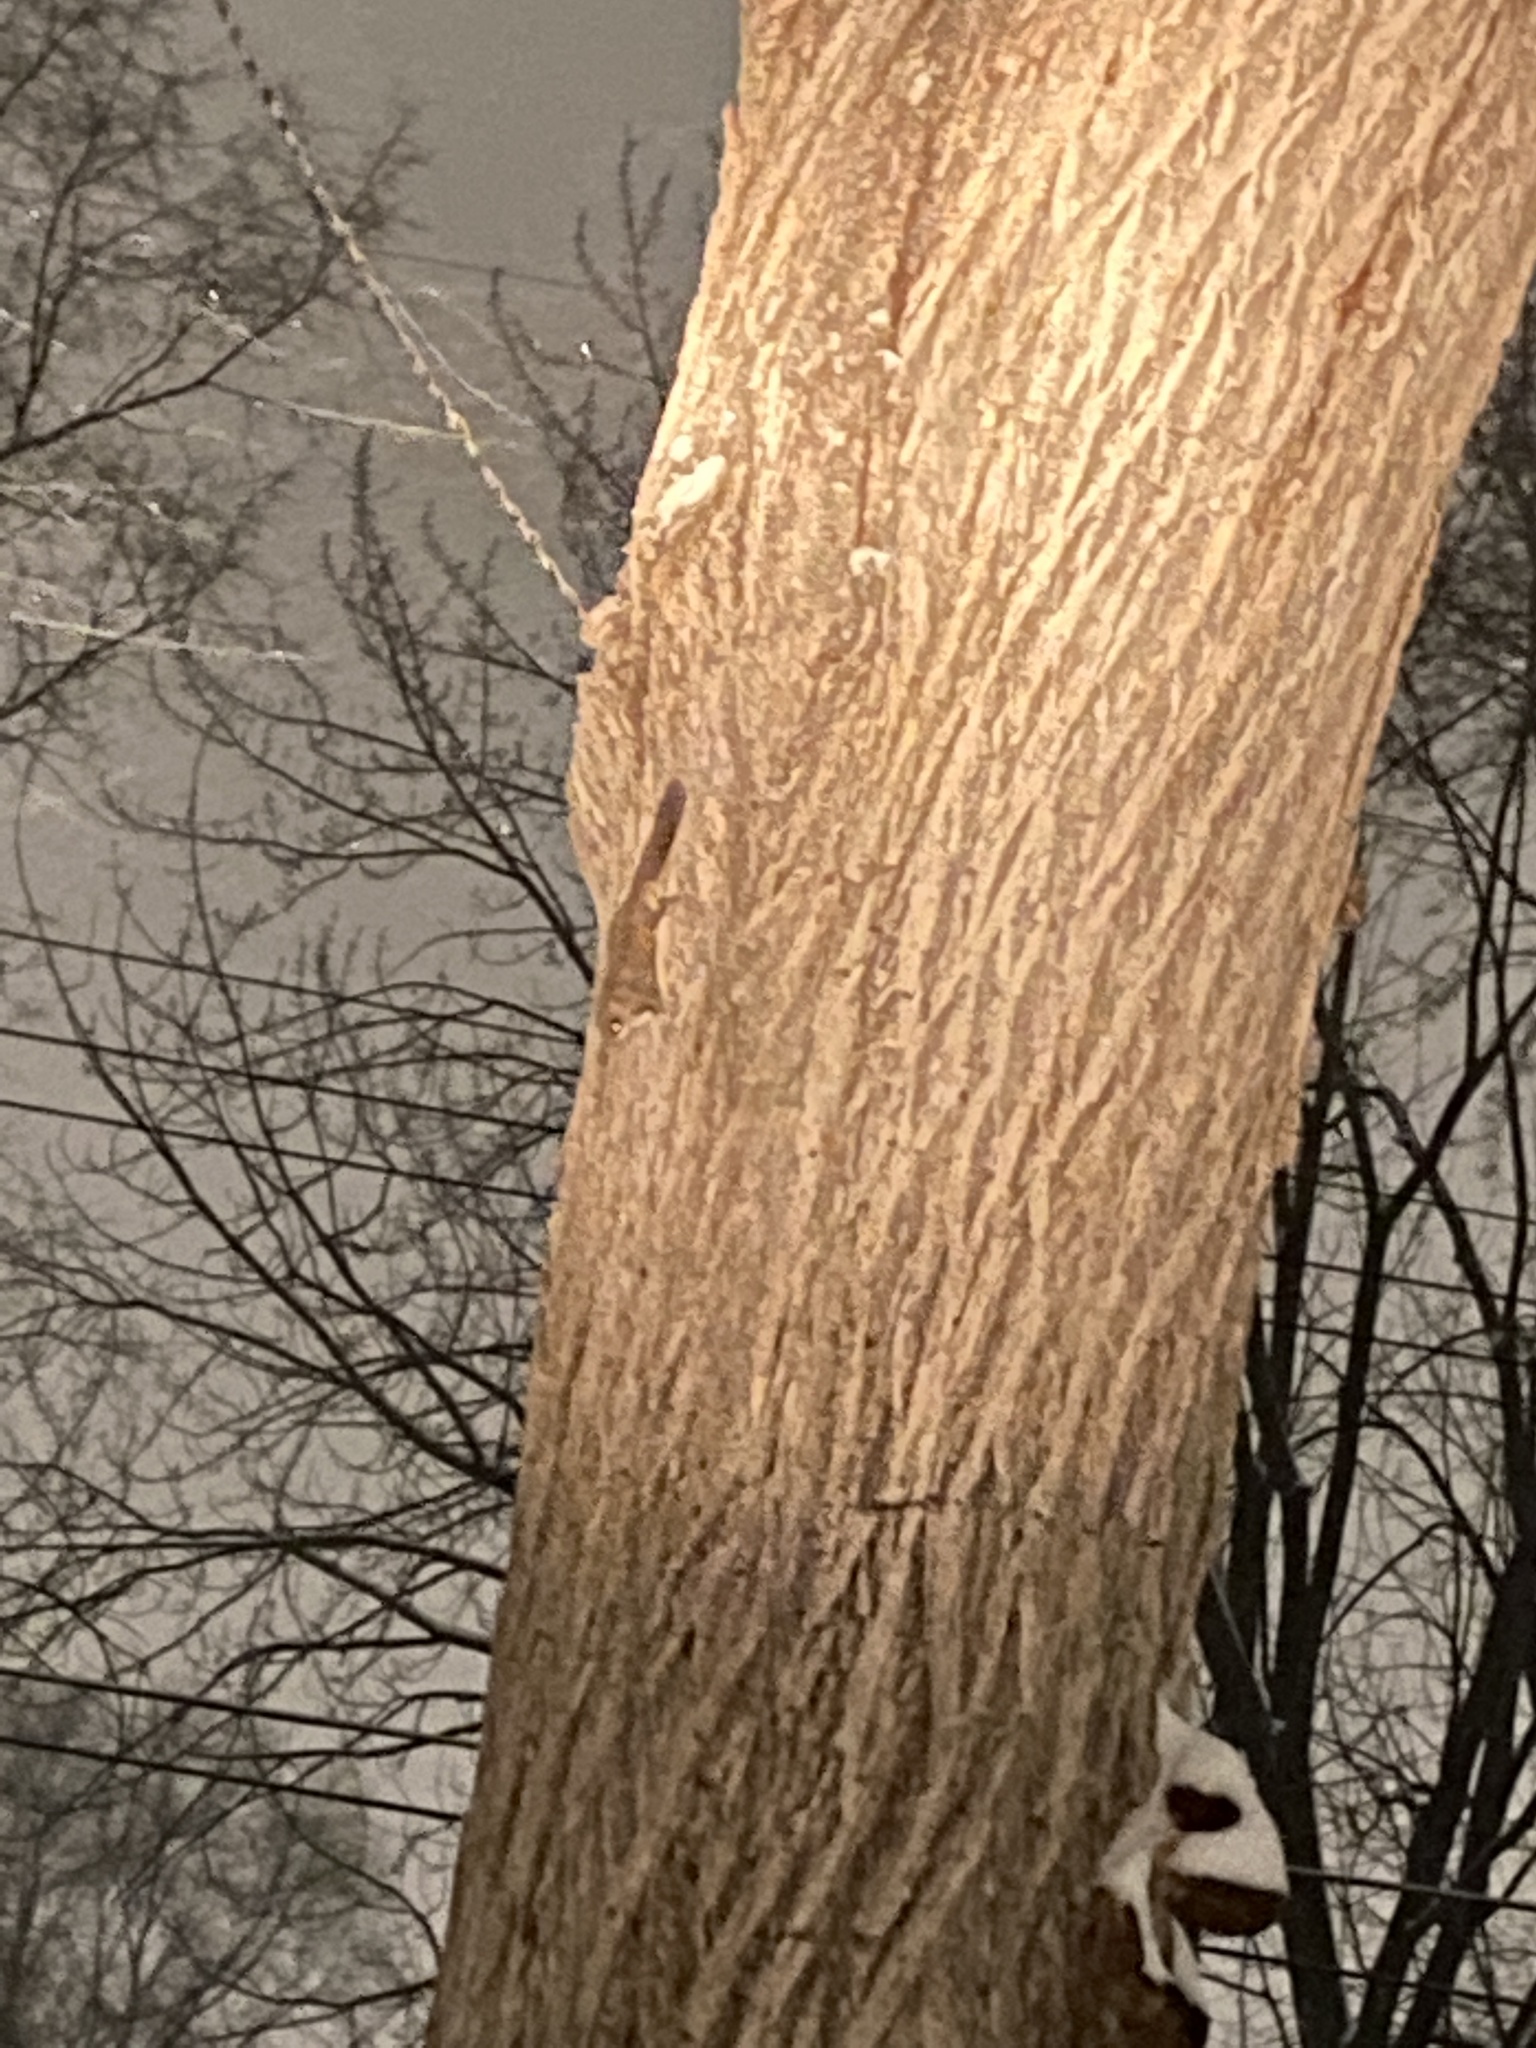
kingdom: Animalia
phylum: Chordata
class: Mammalia
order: Rodentia
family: Sciuridae
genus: Glaucomys
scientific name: Glaucomys volans
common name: Southern flying squirrel
